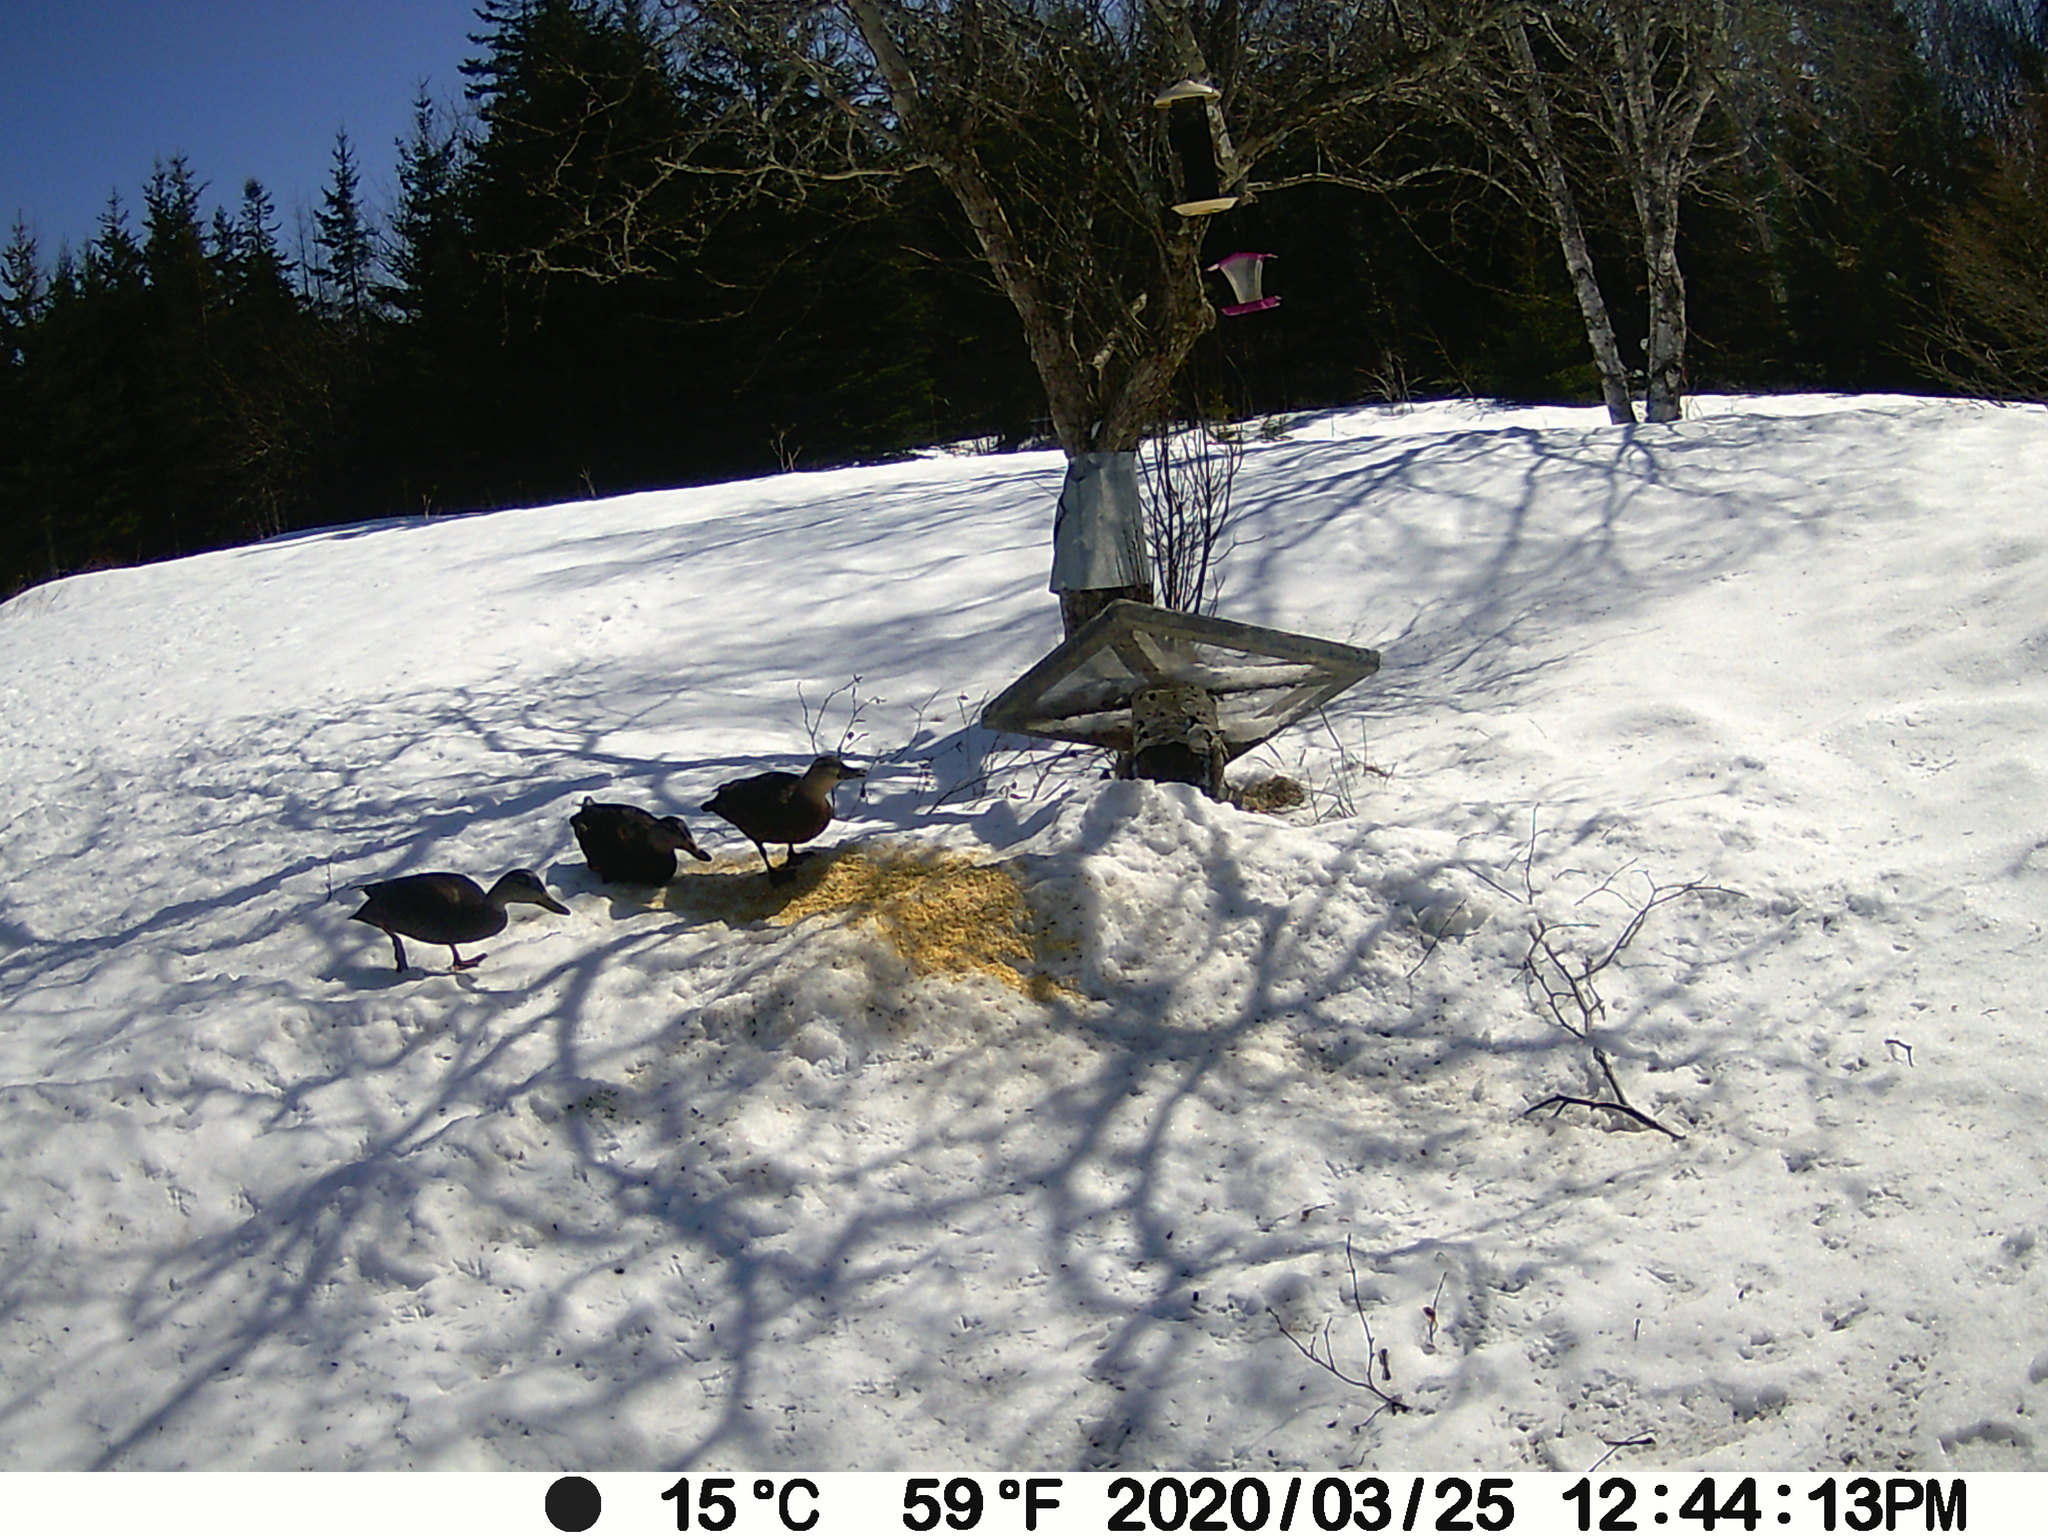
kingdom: Animalia
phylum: Chordata
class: Aves
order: Anseriformes
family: Anatidae
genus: Anas
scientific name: Anas rubripes
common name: American black duck
